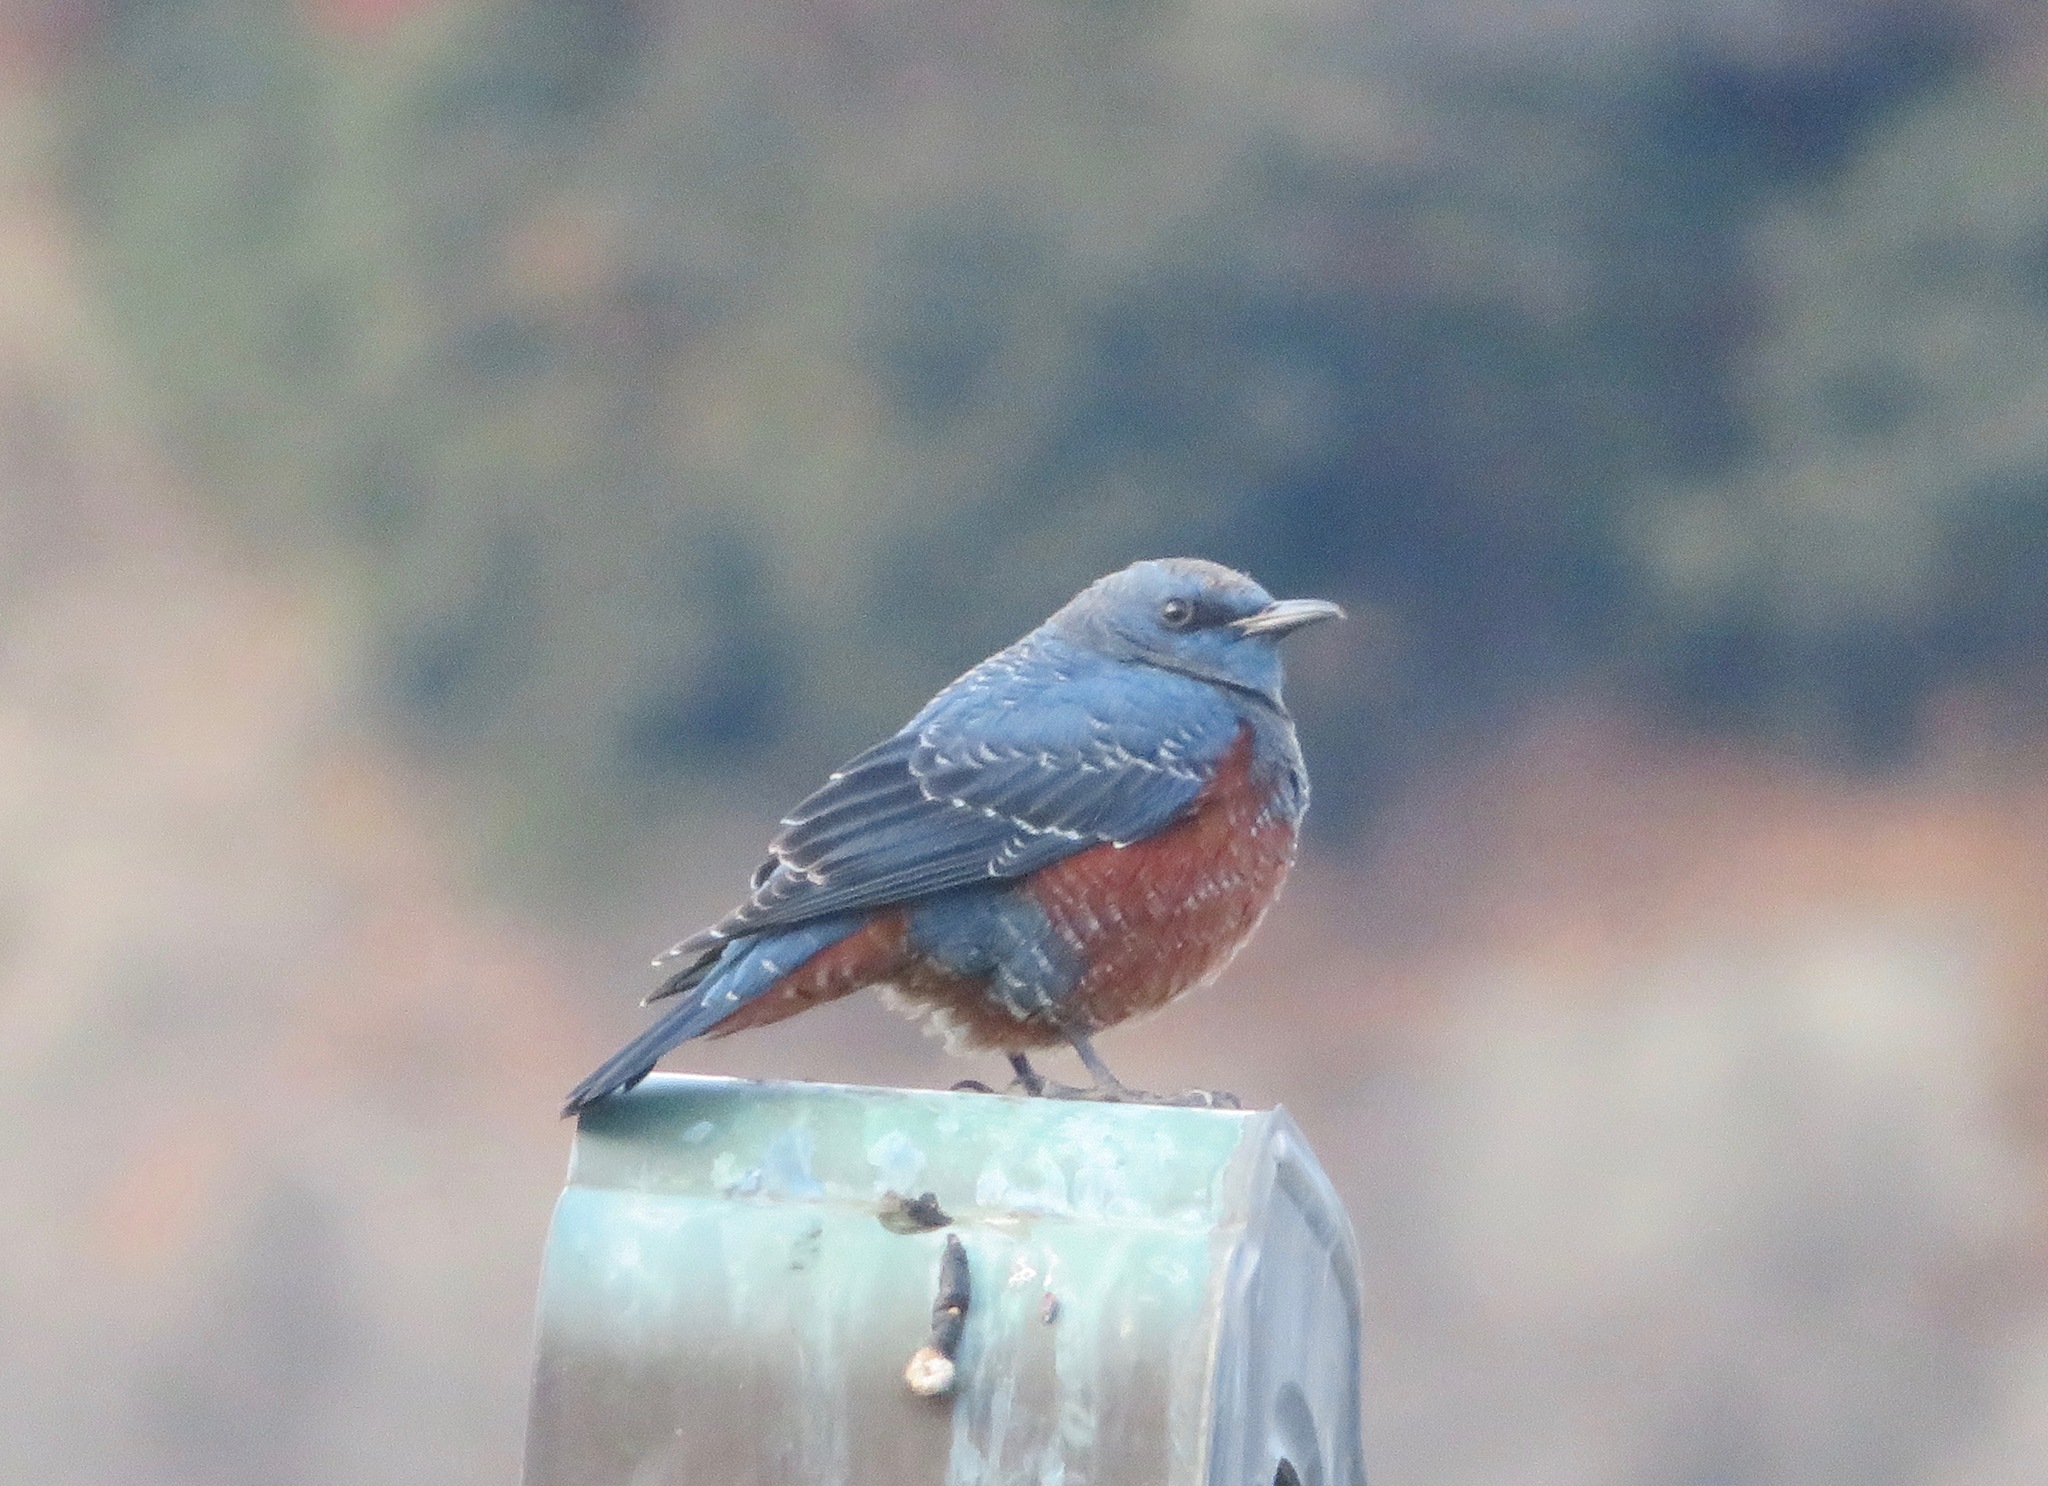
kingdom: Animalia
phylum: Chordata
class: Aves
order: Passeriformes
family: Muscicapidae
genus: Monticola
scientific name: Monticola solitarius
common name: Blue rock thrush
